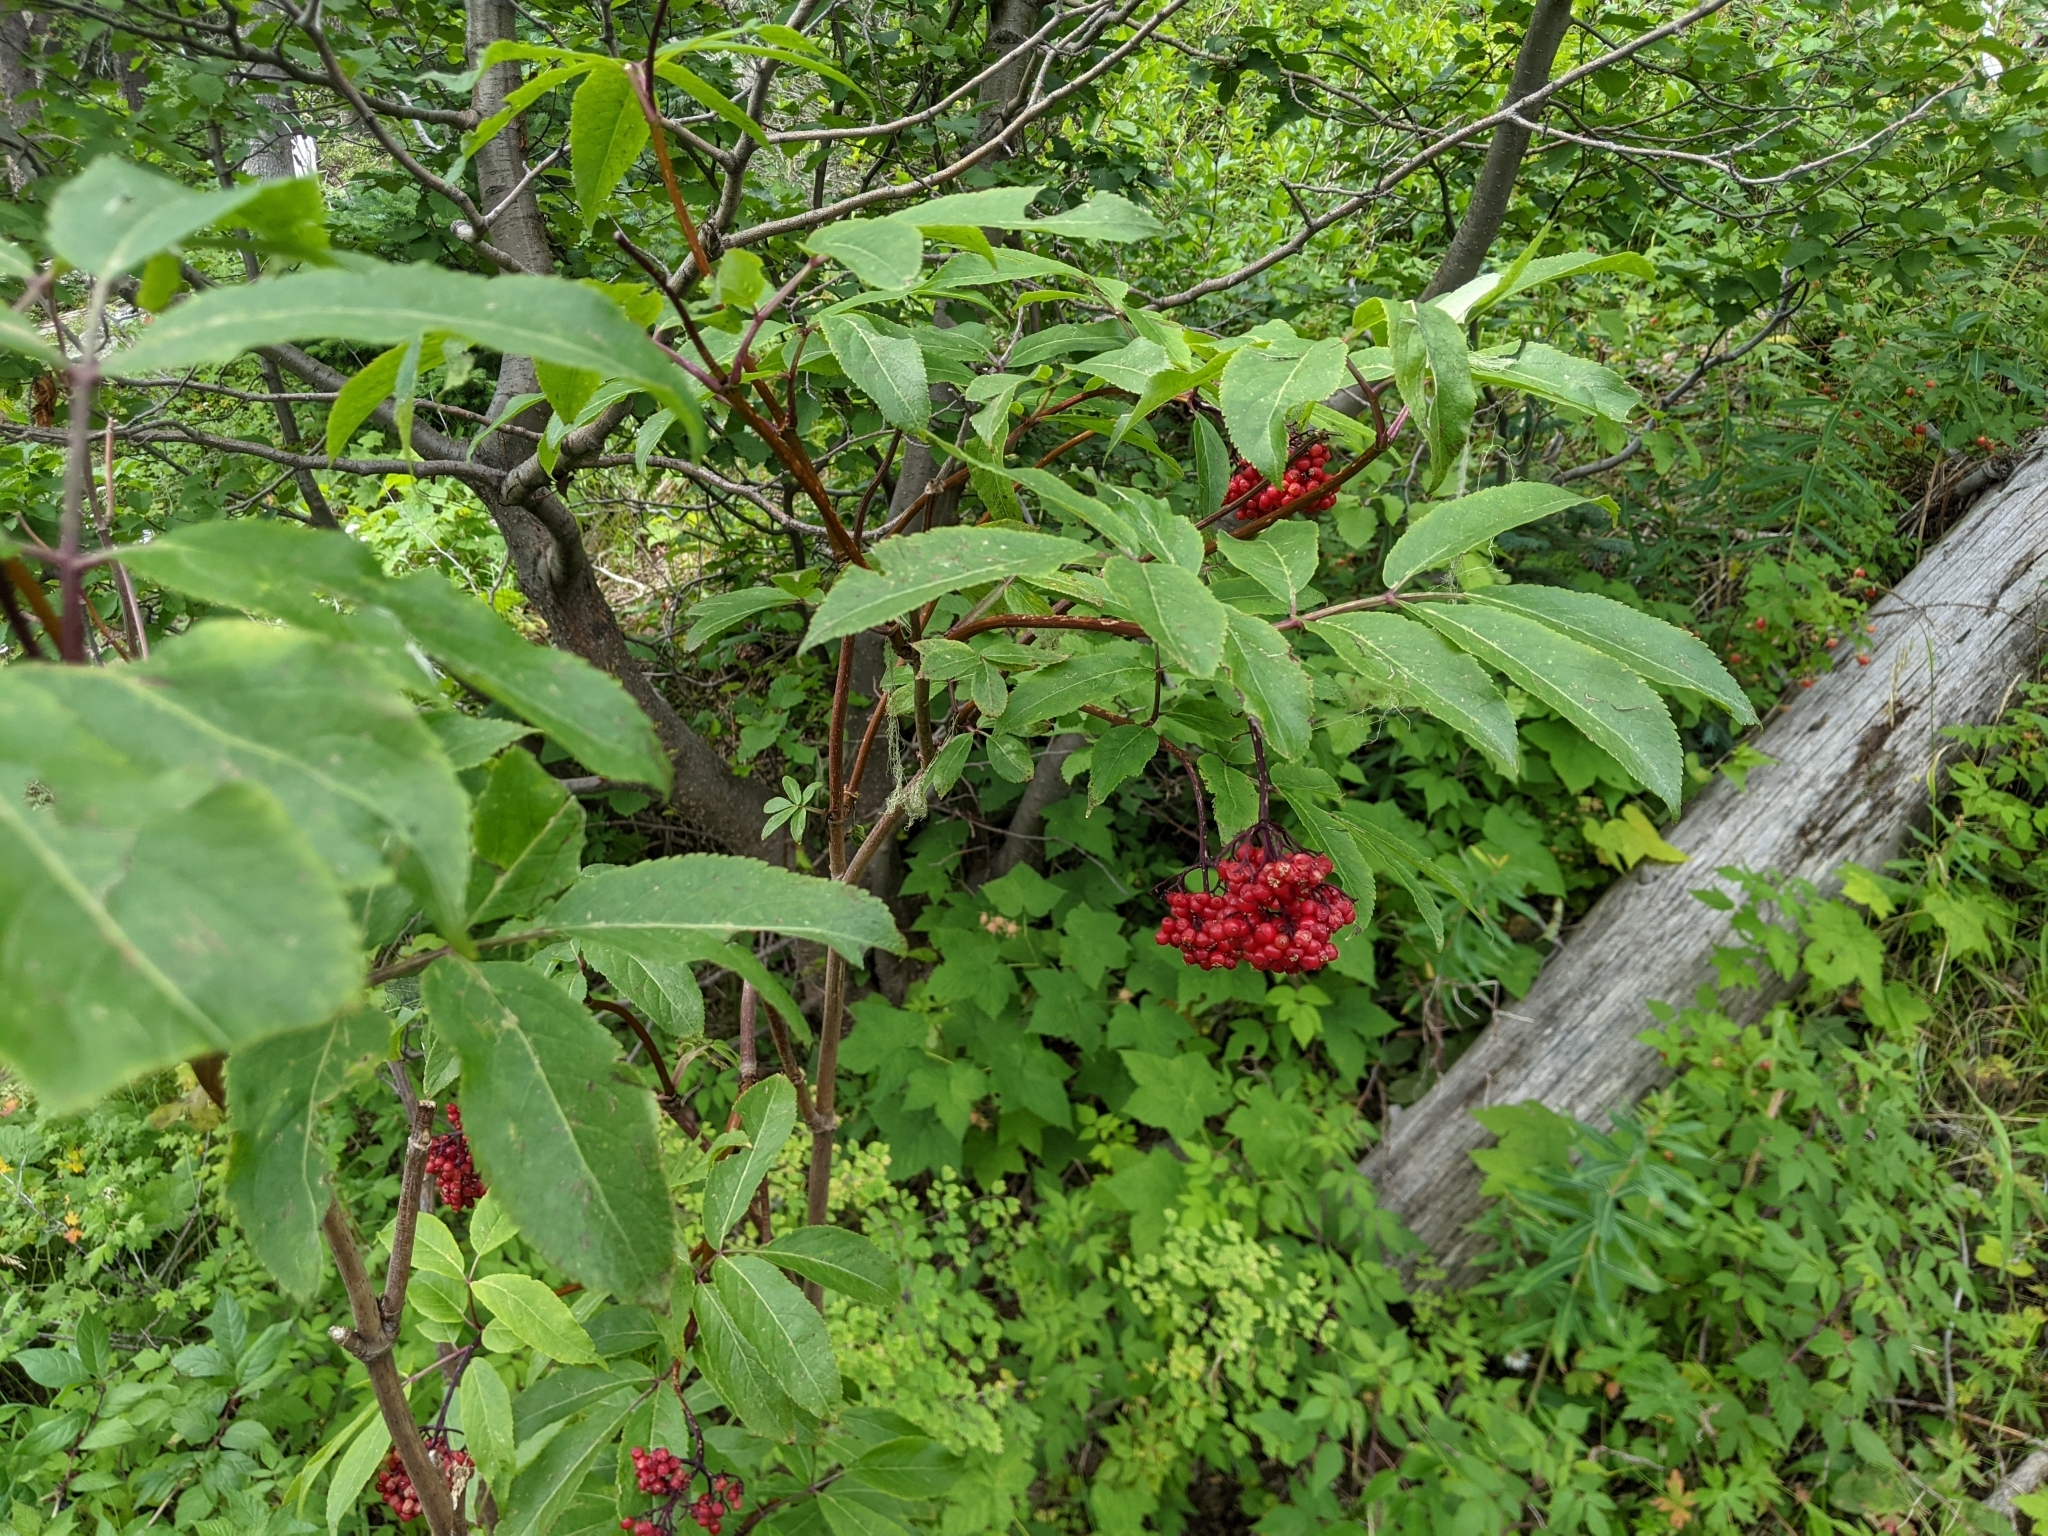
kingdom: Plantae
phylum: Tracheophyta
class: Magnoliopsida
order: Dipsacales
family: Viburnaceae
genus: Sambucus
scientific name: Sambucus racemosa
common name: Red-berried elder
